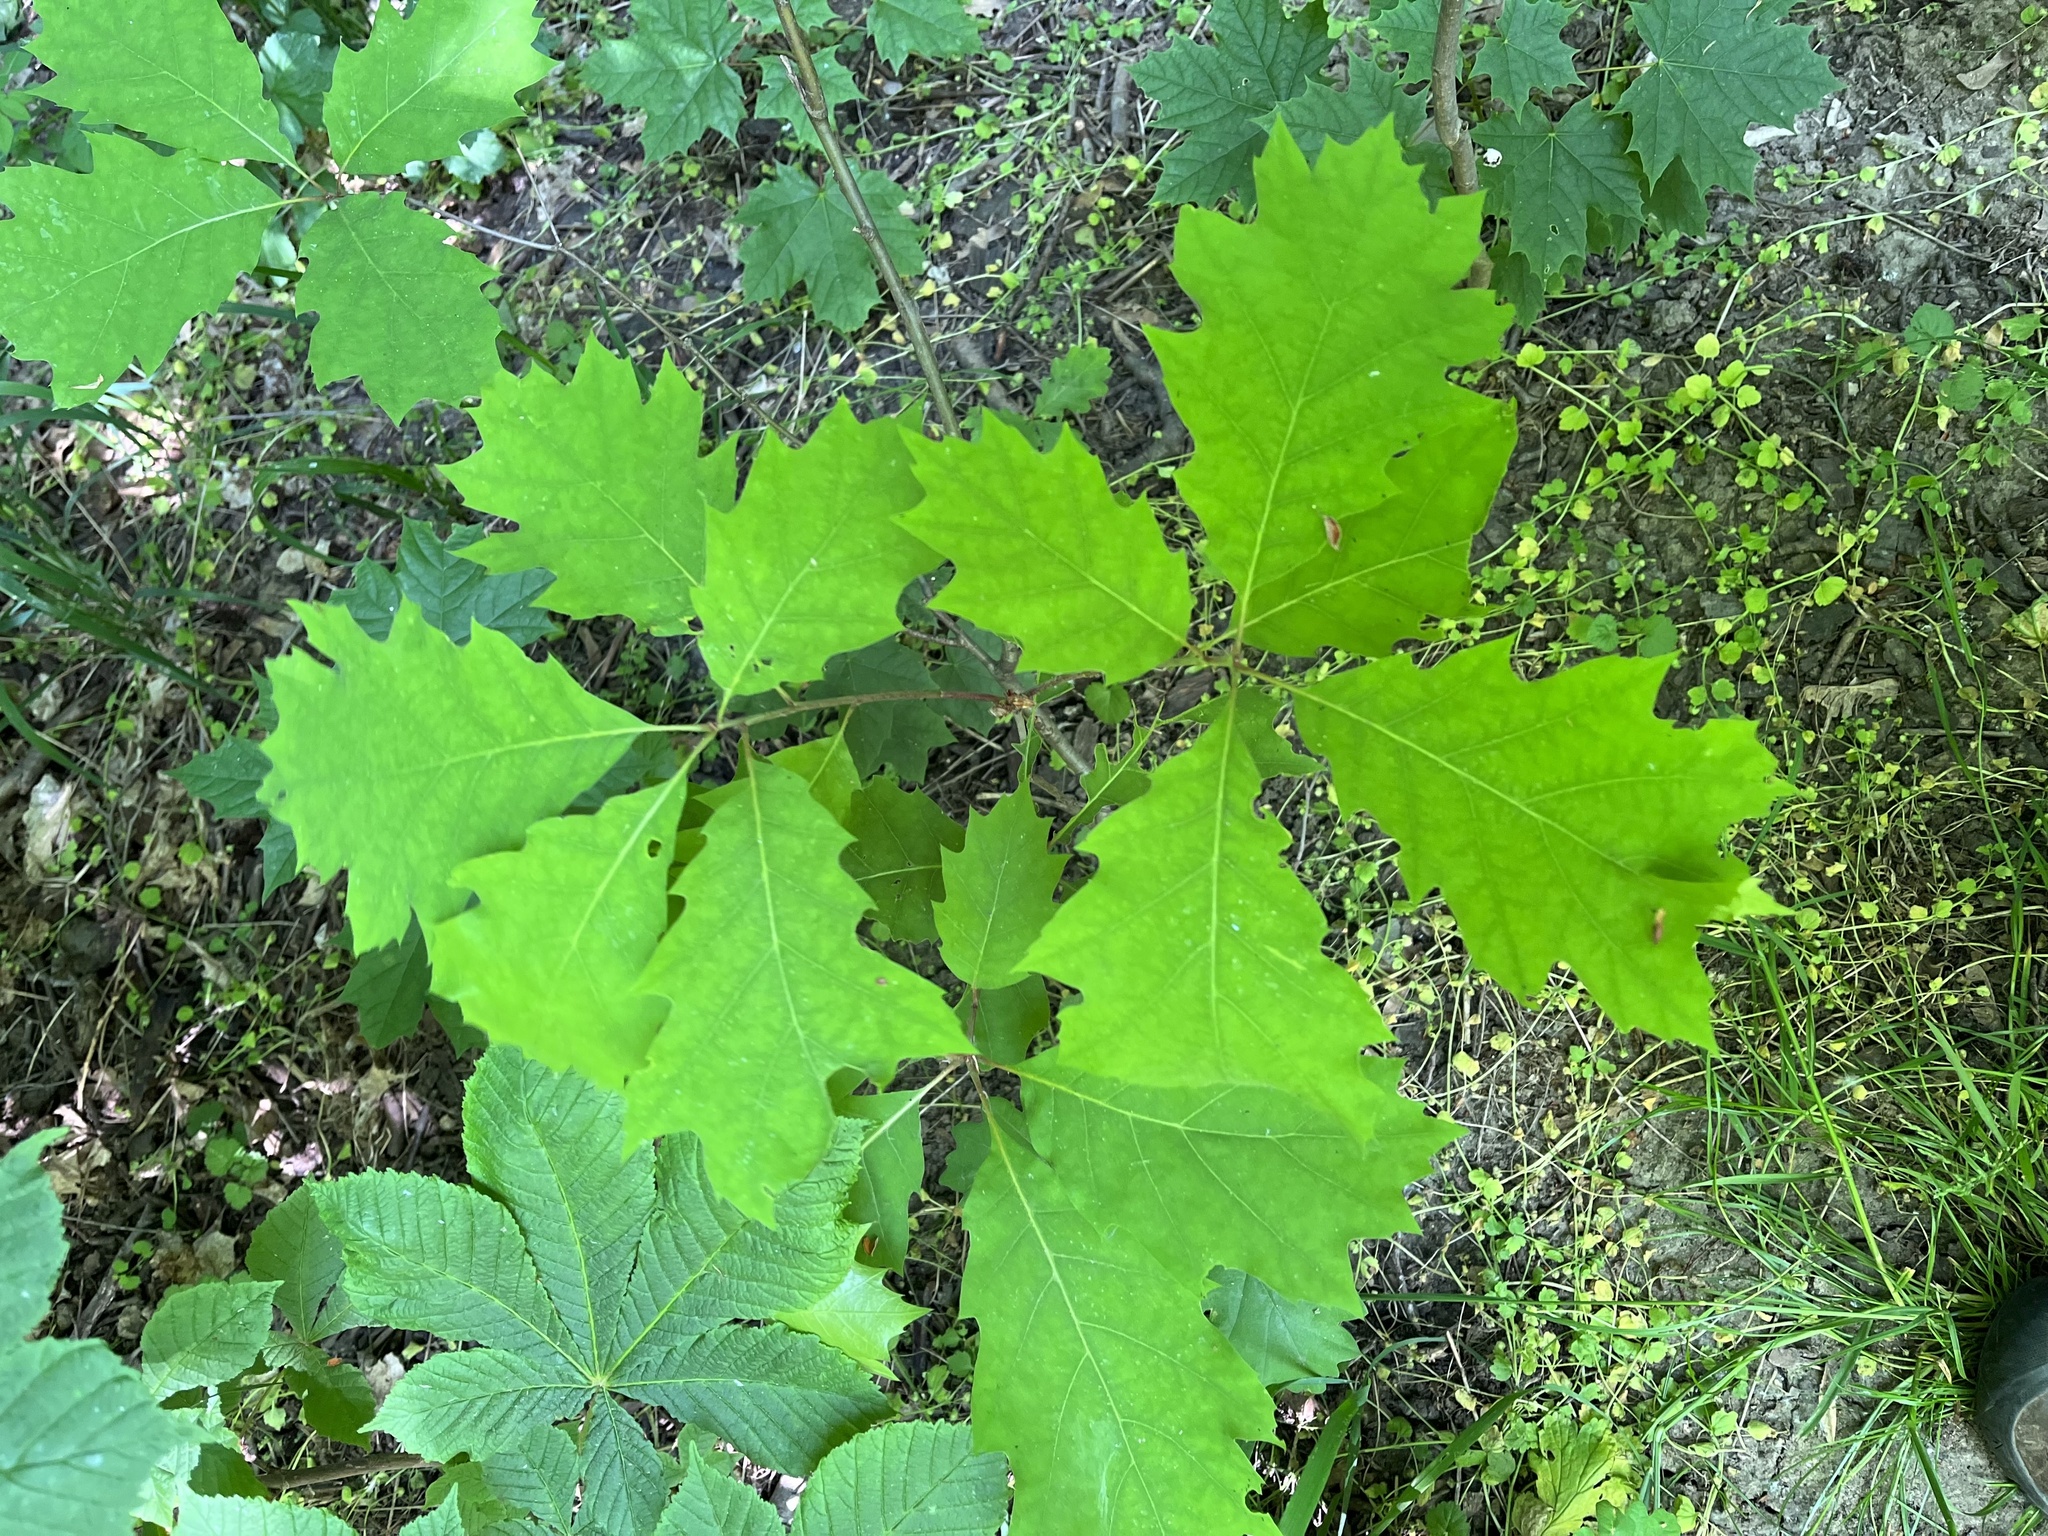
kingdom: Plantae
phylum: Tracheophyta
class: Magnoliopsida
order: Fagales
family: Fagaceae
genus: Quercus
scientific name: Quercus rubra
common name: Red oak
